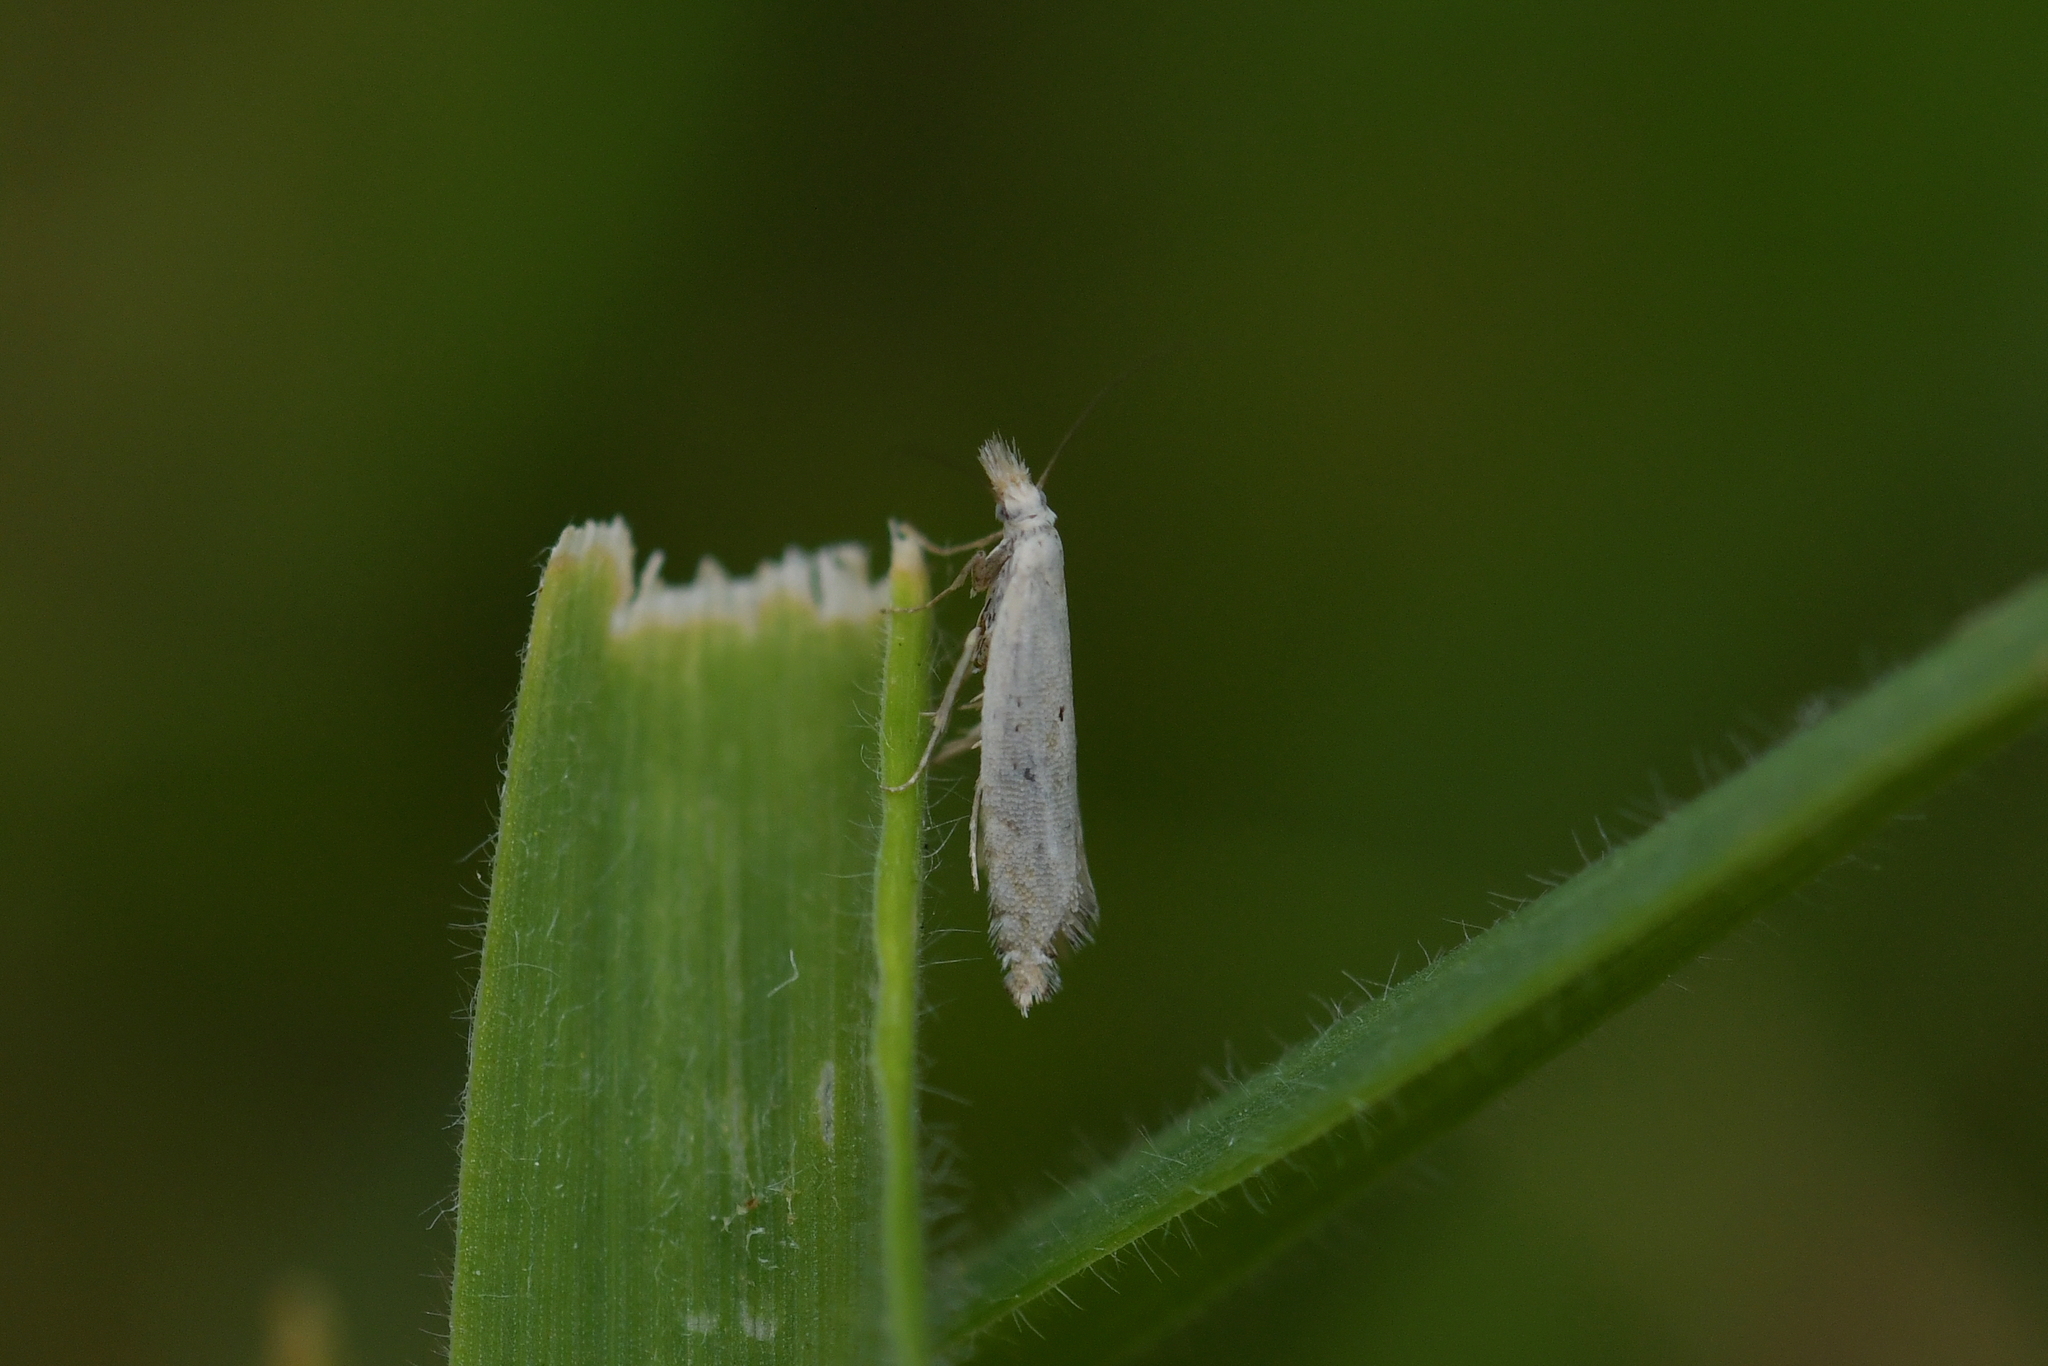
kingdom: Animalia
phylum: Arthropoda
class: Insecta
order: Lepidoptera
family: Glyphipterigidae
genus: Glyphipterix
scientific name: Glyphipterix achlyoessa
